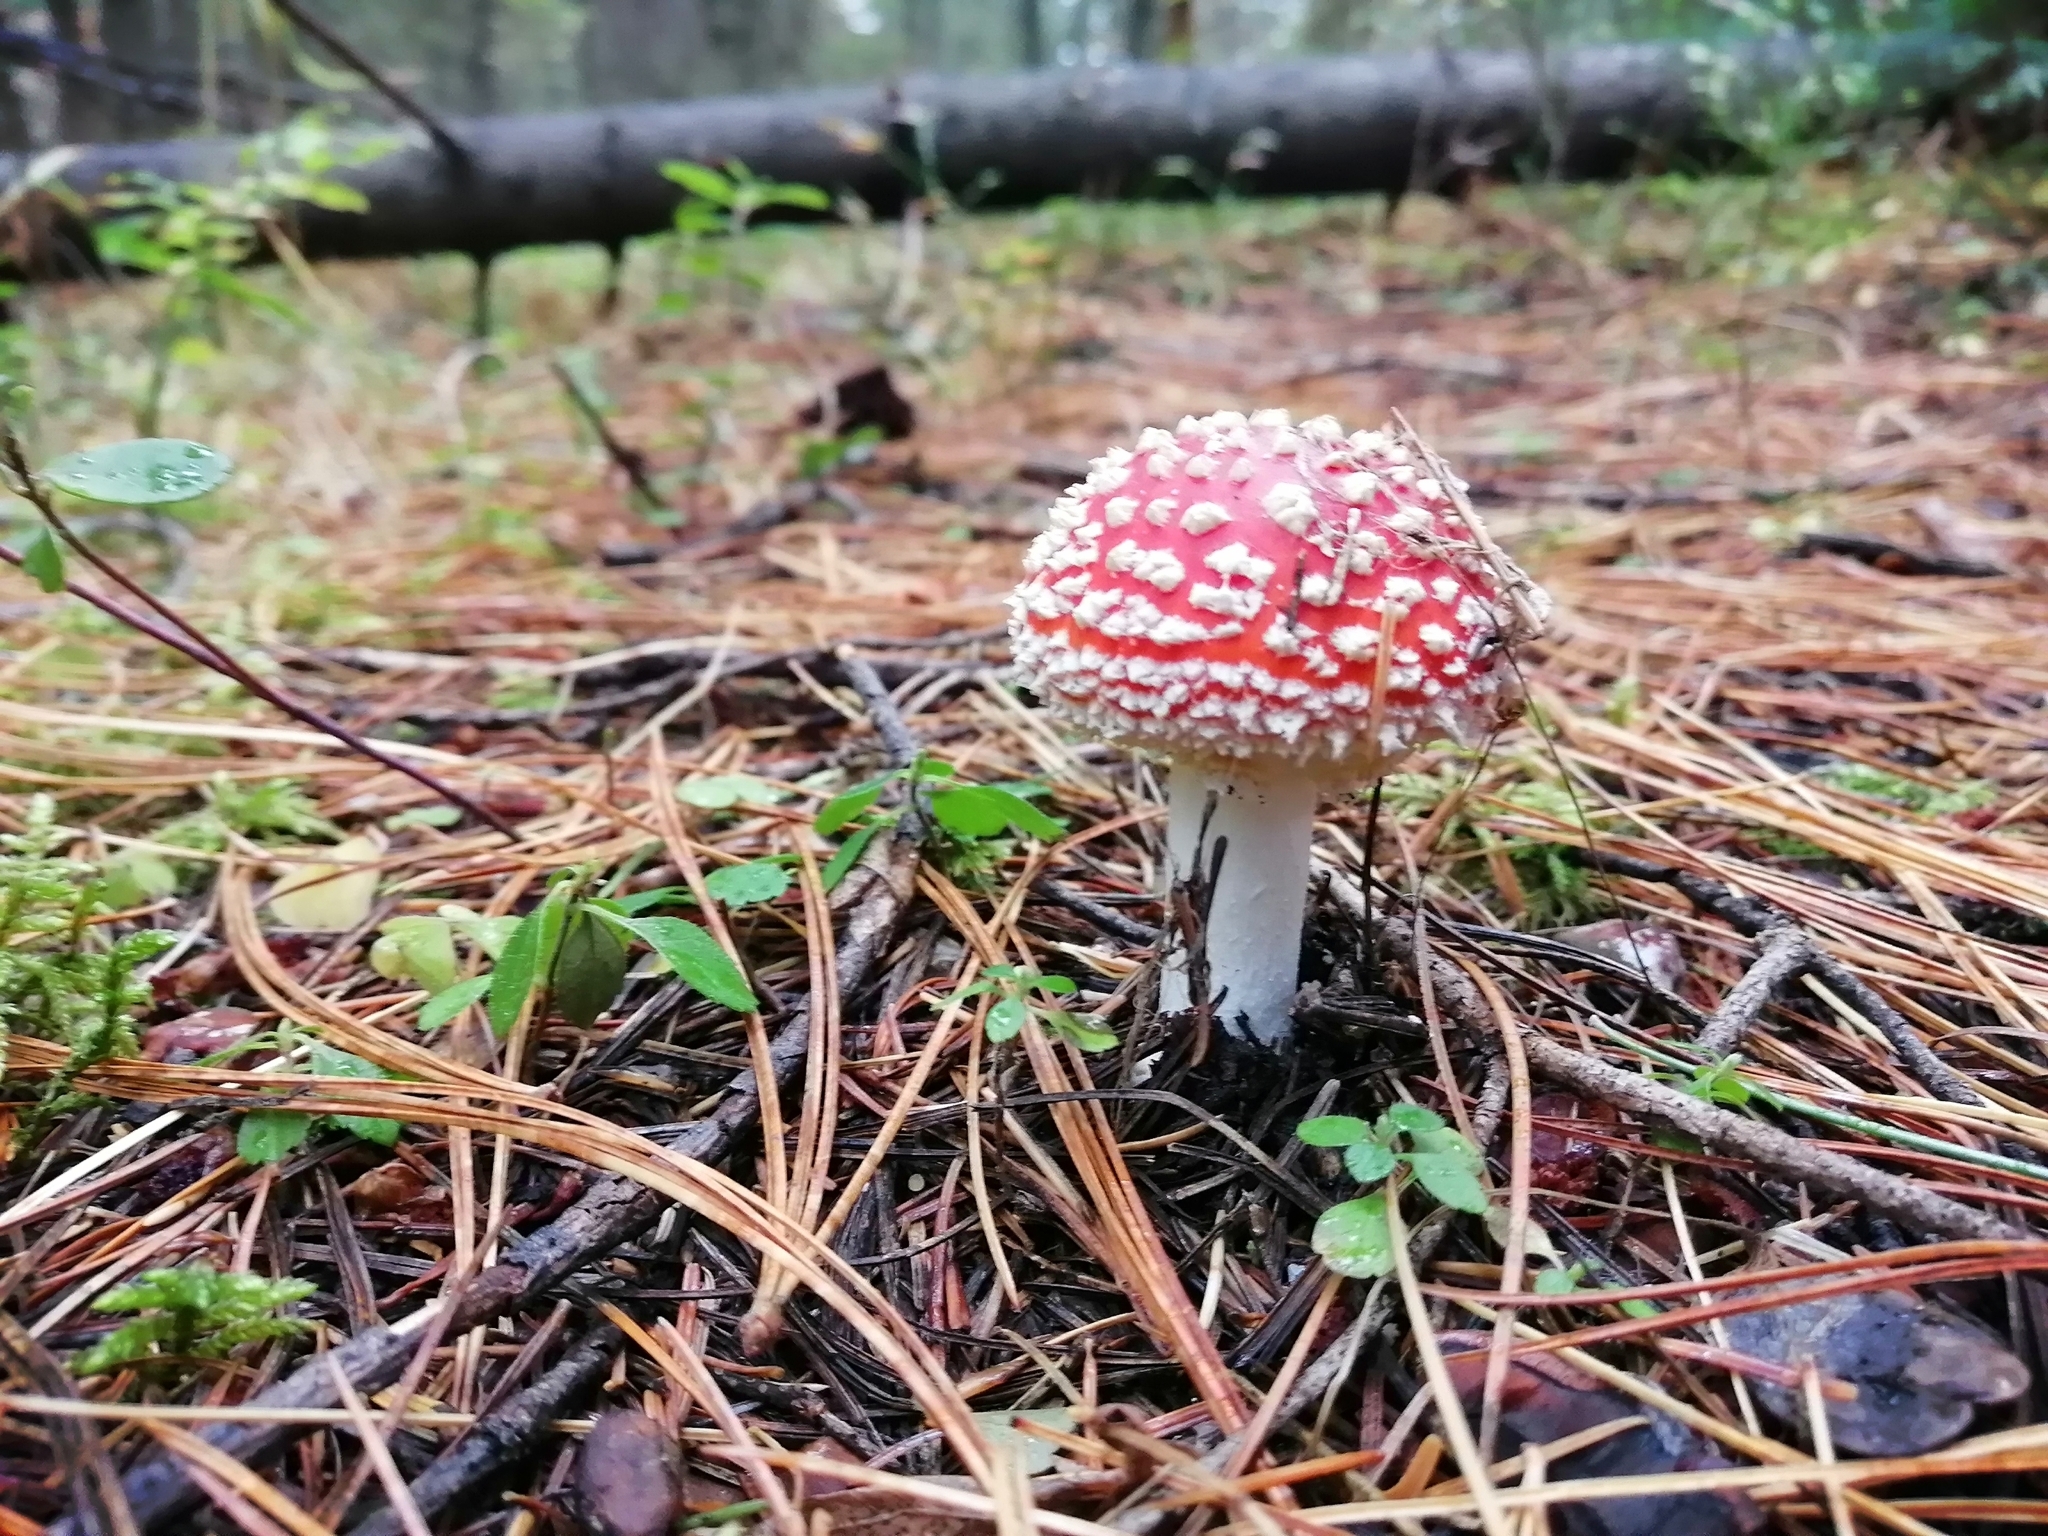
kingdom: Fungi
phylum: Basidiomycota
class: Agaricomycetes
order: Agaricales
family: Amanitaceae
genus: Amanita
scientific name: Amanita muscaria
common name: Fly agaric
